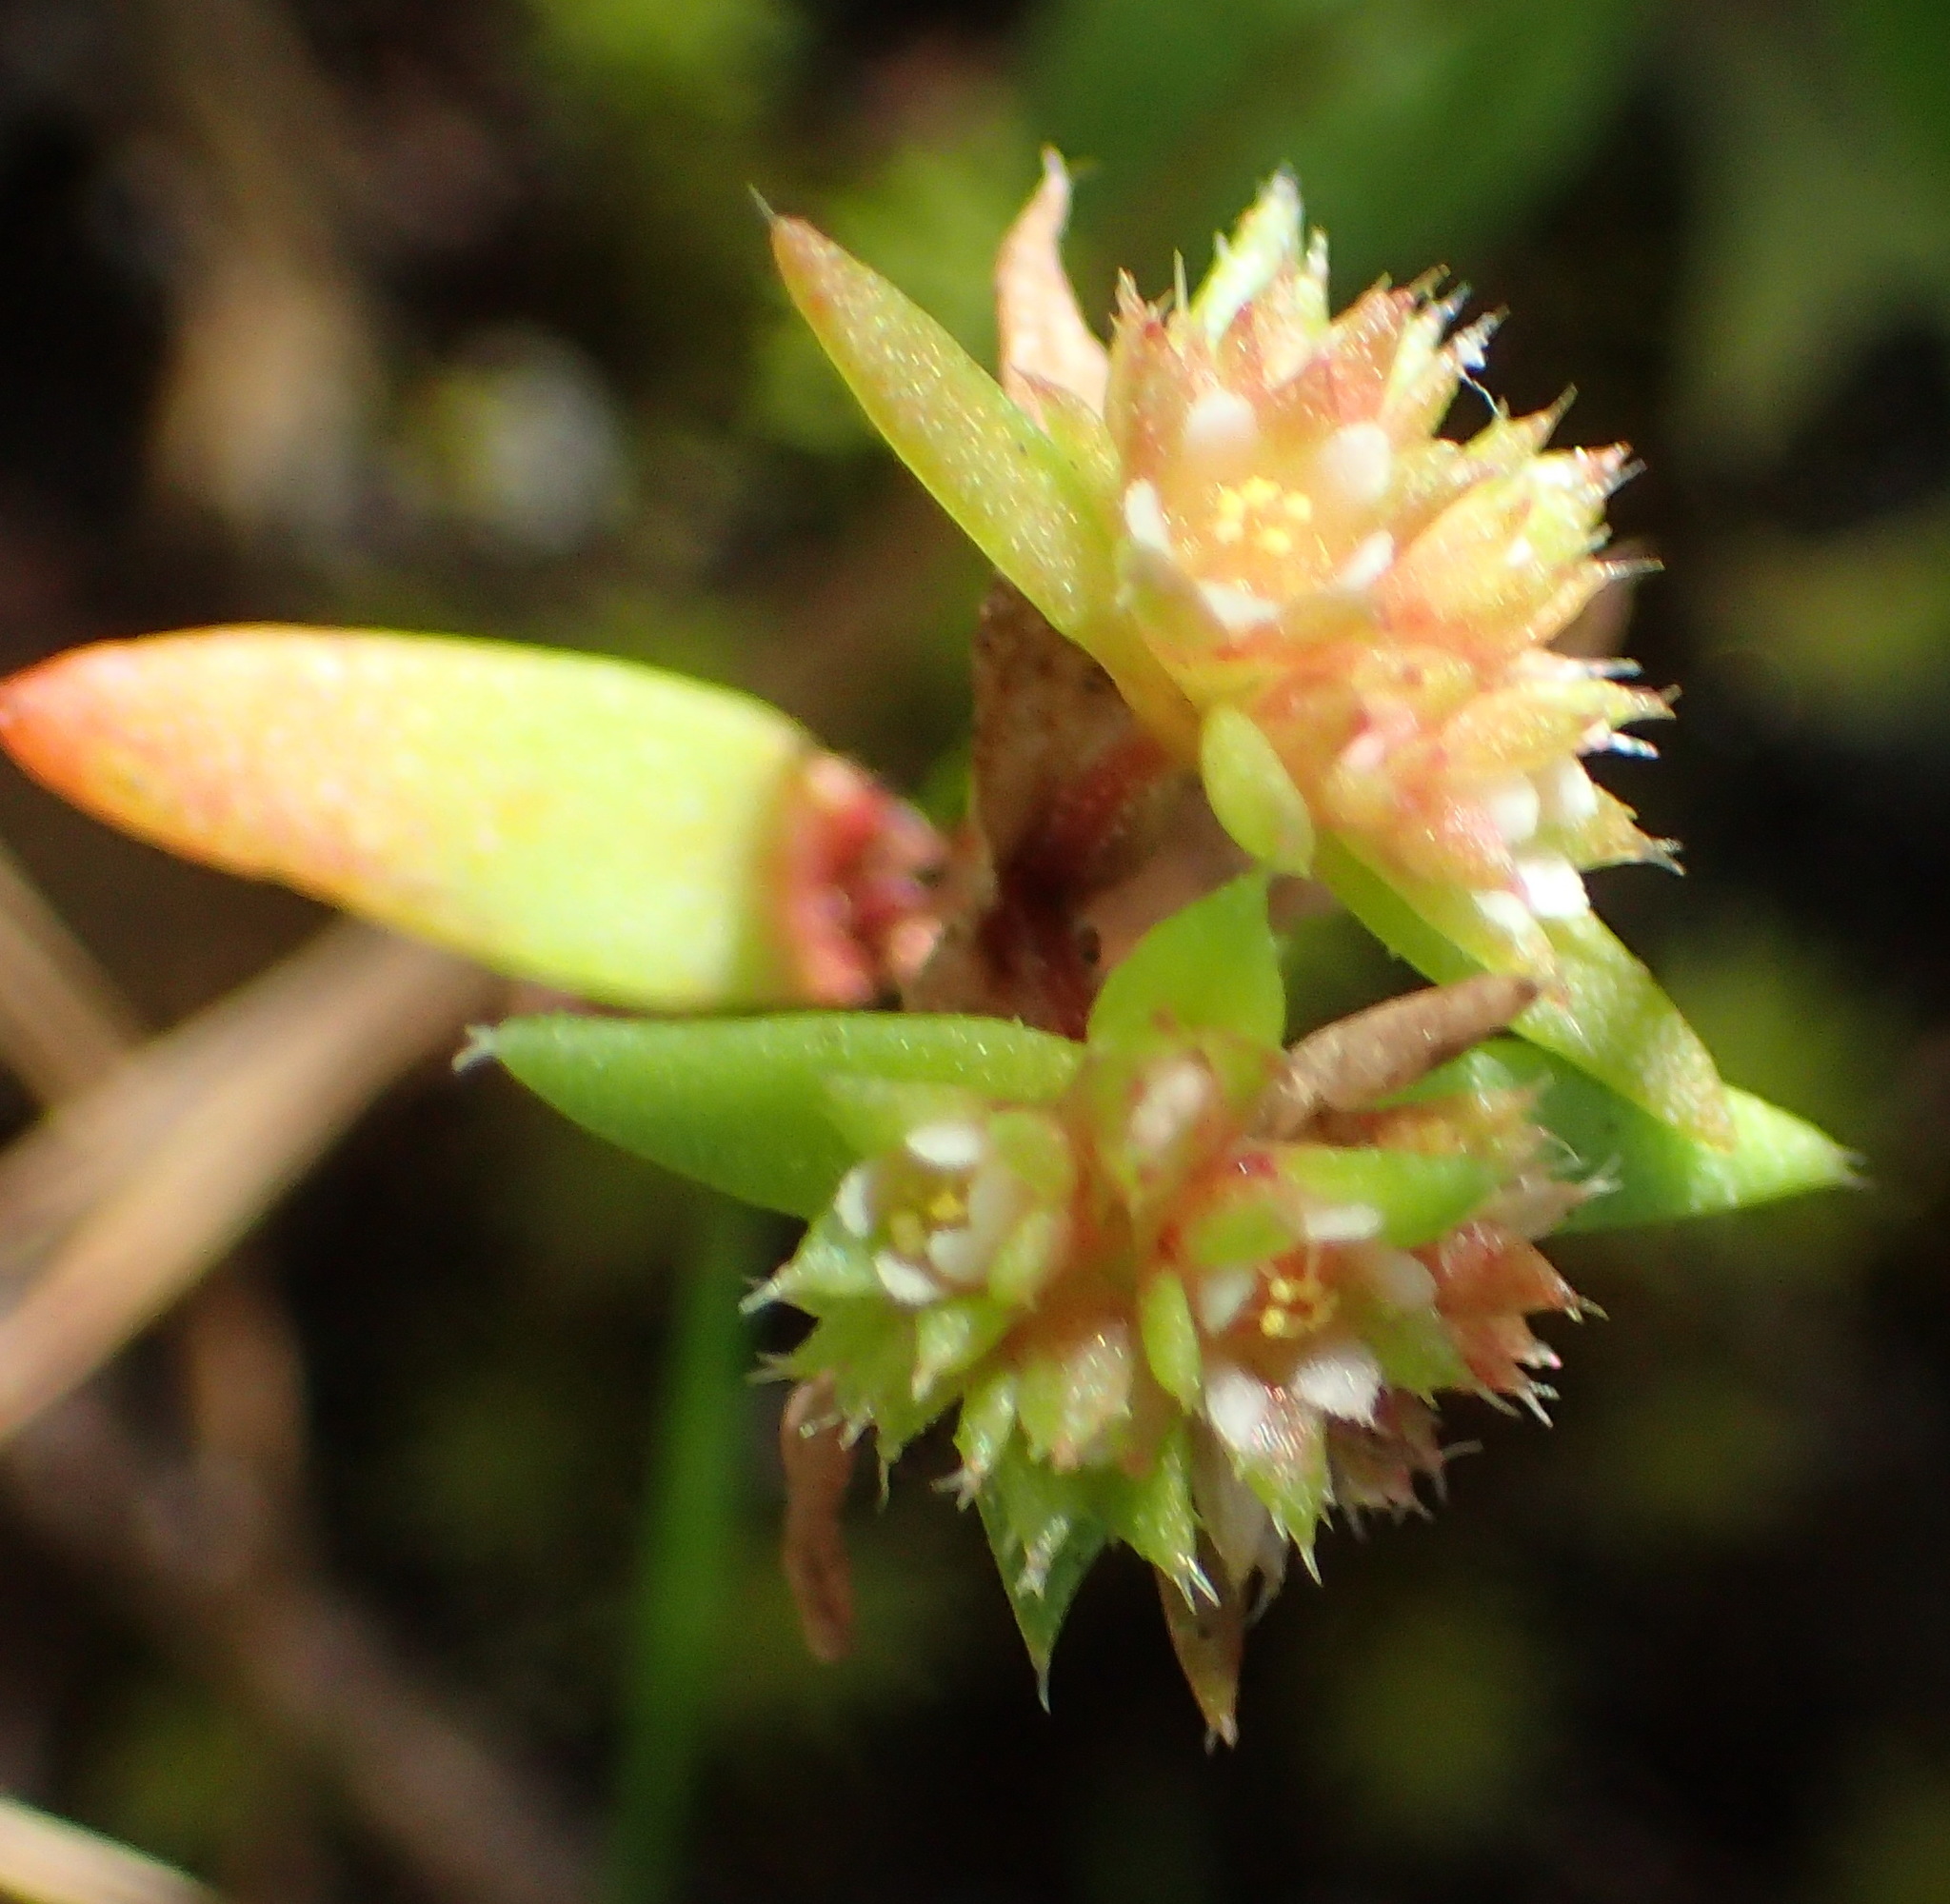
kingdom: Plantae
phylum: Tracheophyta
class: Magnoliopsida
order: Saxifragales
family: Crassulaceae
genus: Crassula
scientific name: Crassula glomerata
